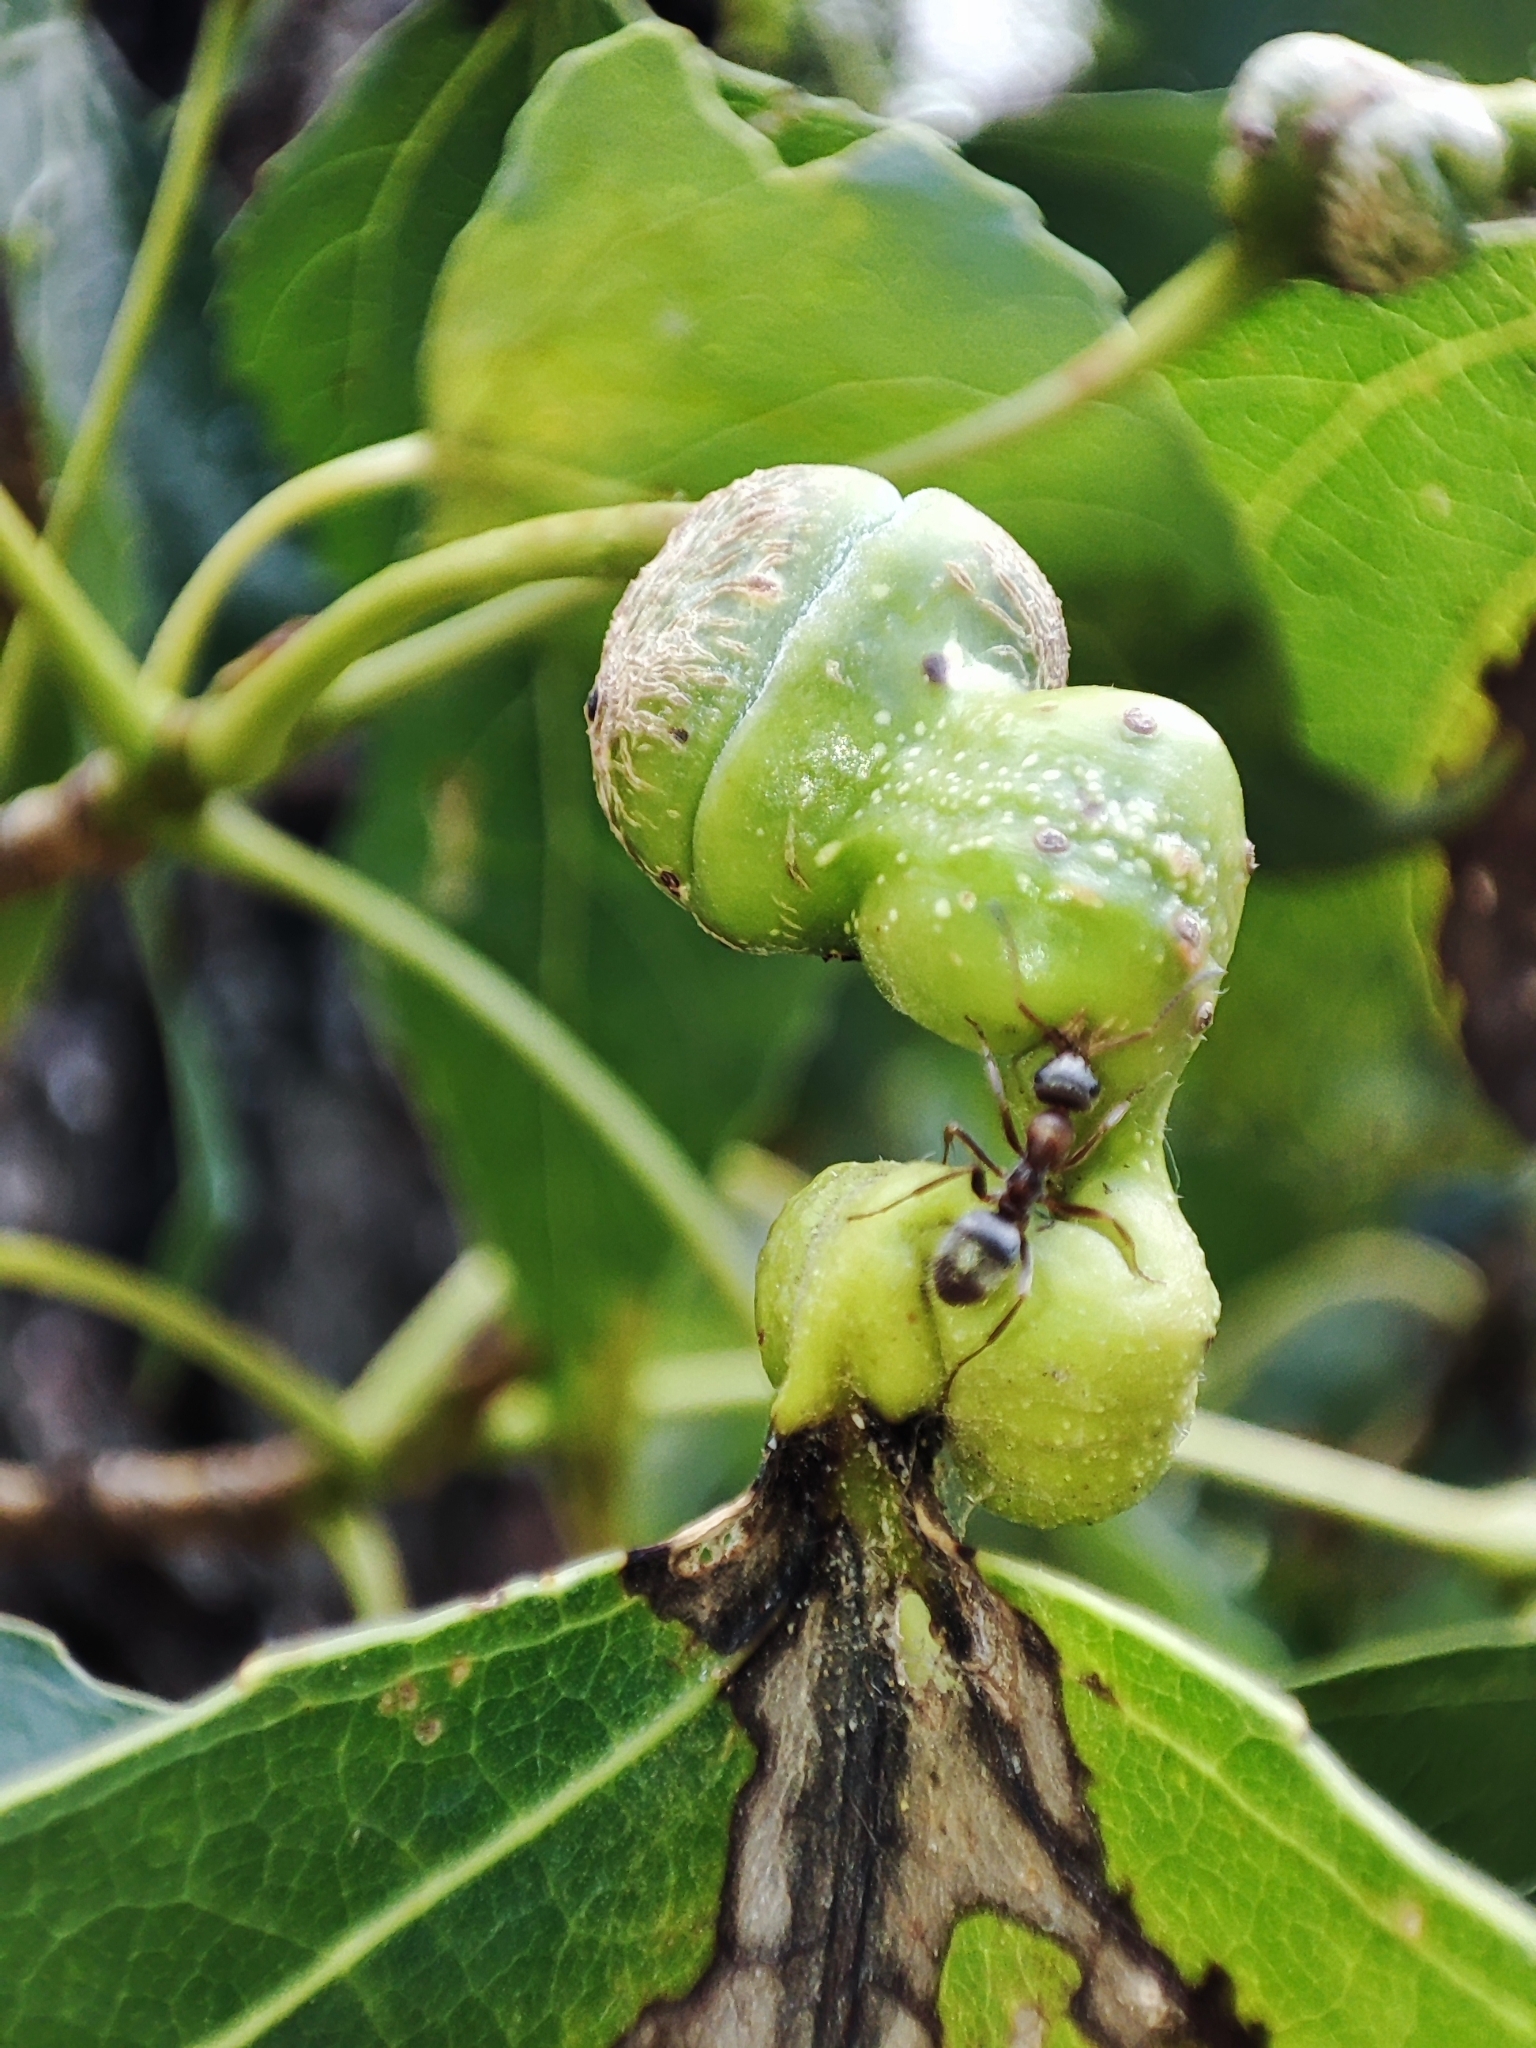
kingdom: Animalia
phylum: Arthropoda
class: Insecta
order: Hymenoptera
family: Formicidae
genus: Formica
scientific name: Formica cinerea
